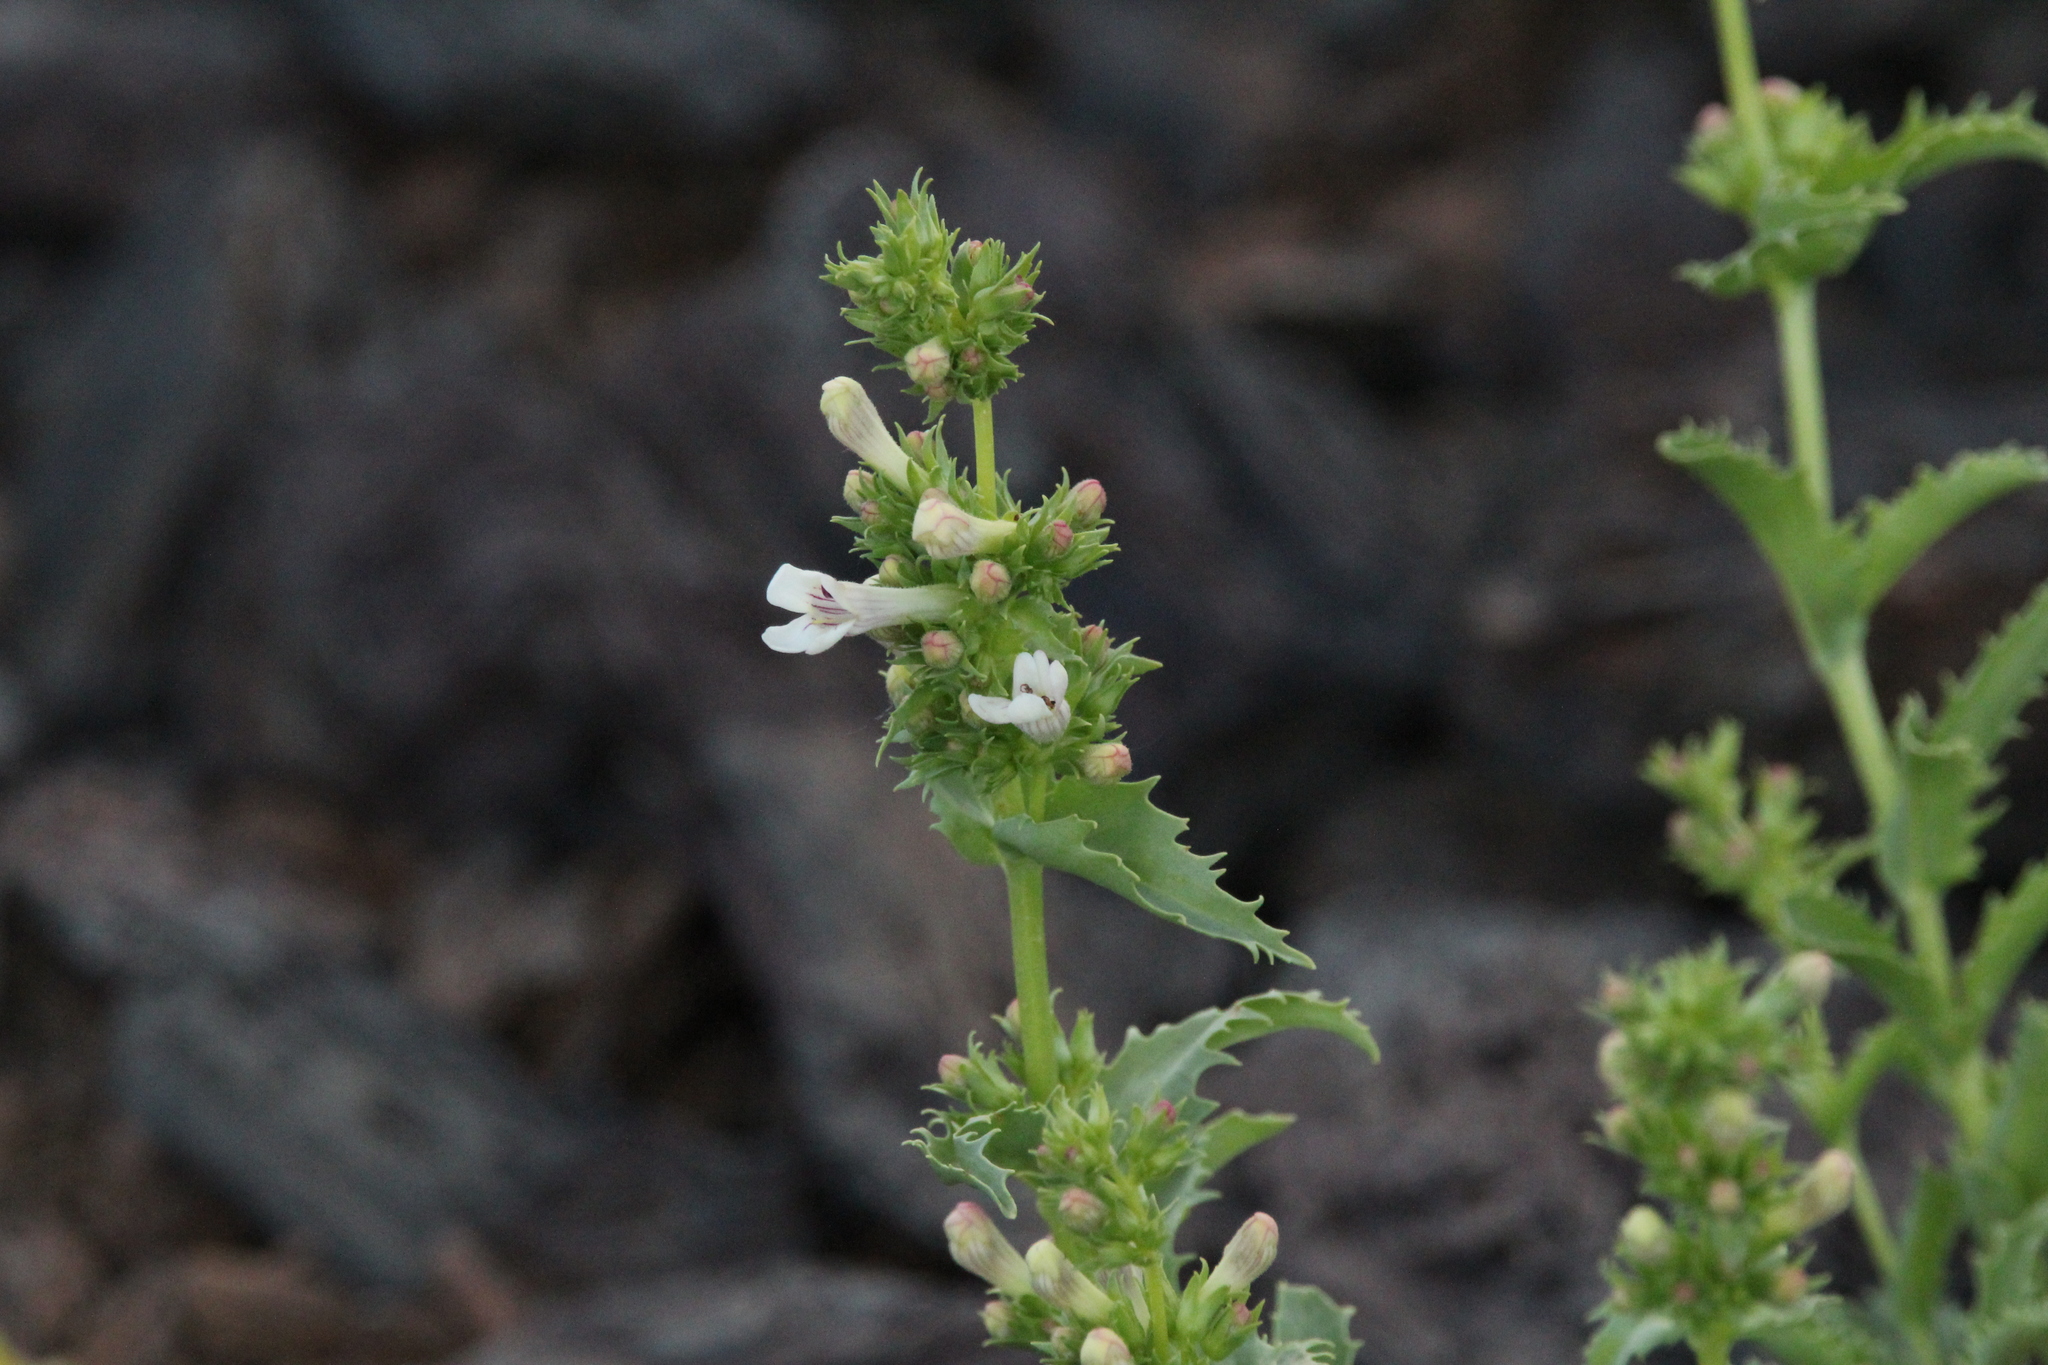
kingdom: Plantae
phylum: Tracheophyta
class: Magnoliopsida
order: Lamiales
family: Plantaginaceae
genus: Penstemon
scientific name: Penstemon deustus
